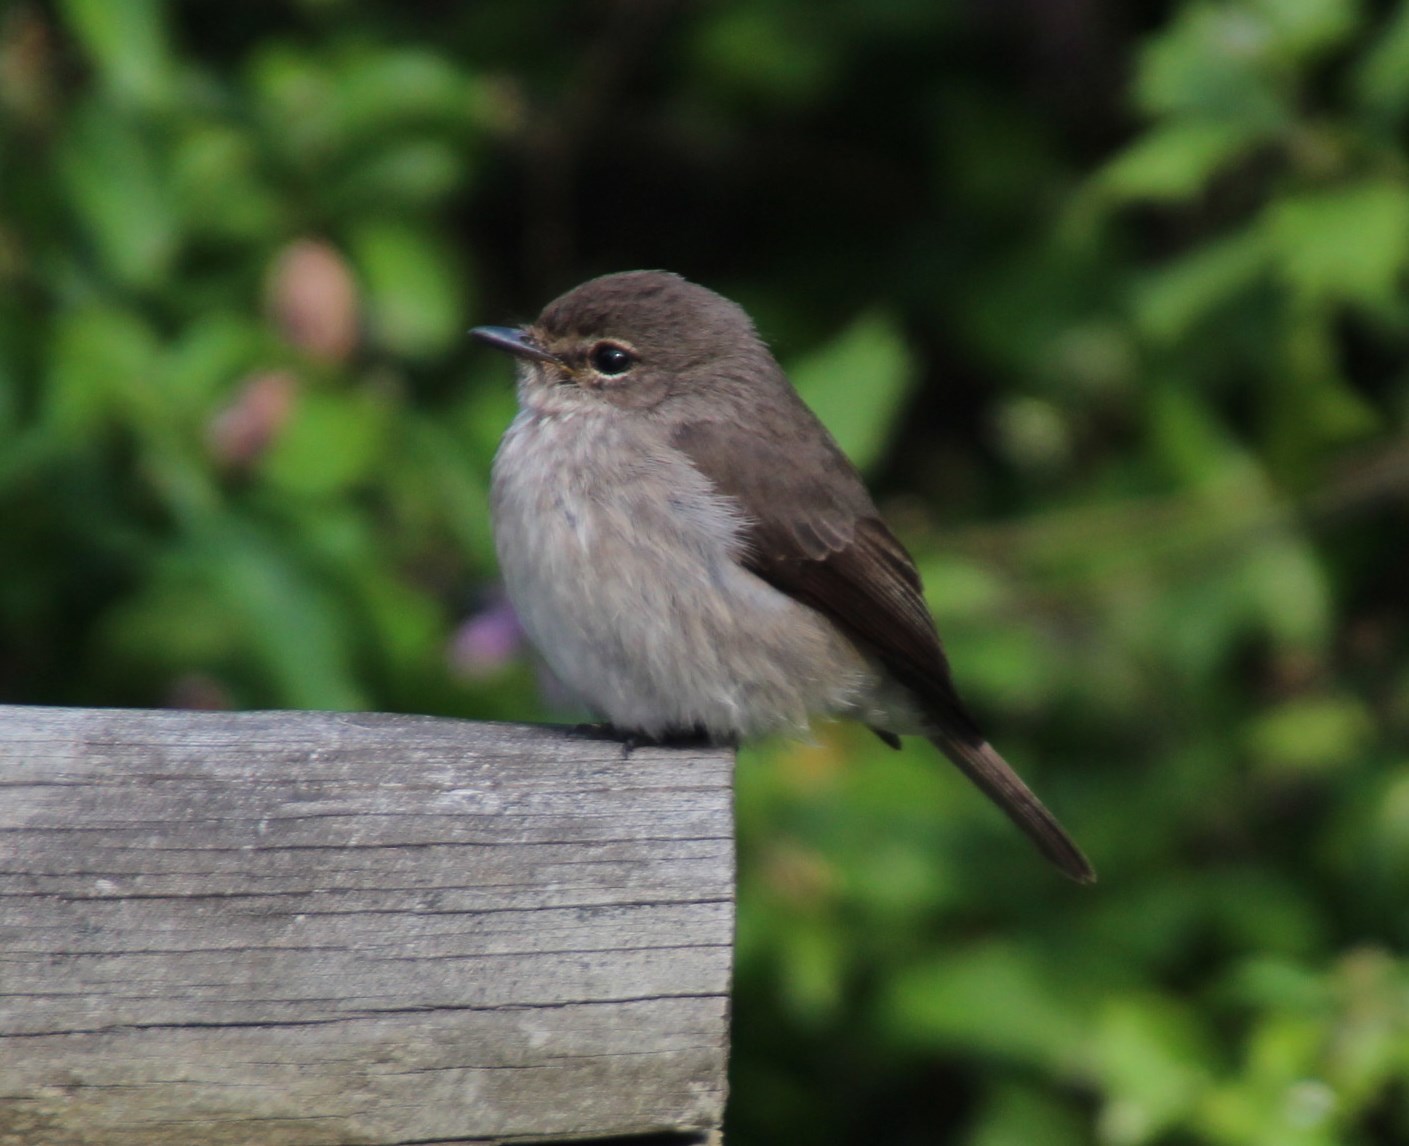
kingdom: Animalia
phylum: Chordata
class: Aves
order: Passeriformes
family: Muscicapidae
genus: Muscicapa
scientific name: Muscicapa adusta
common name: African dusky flycatcher
